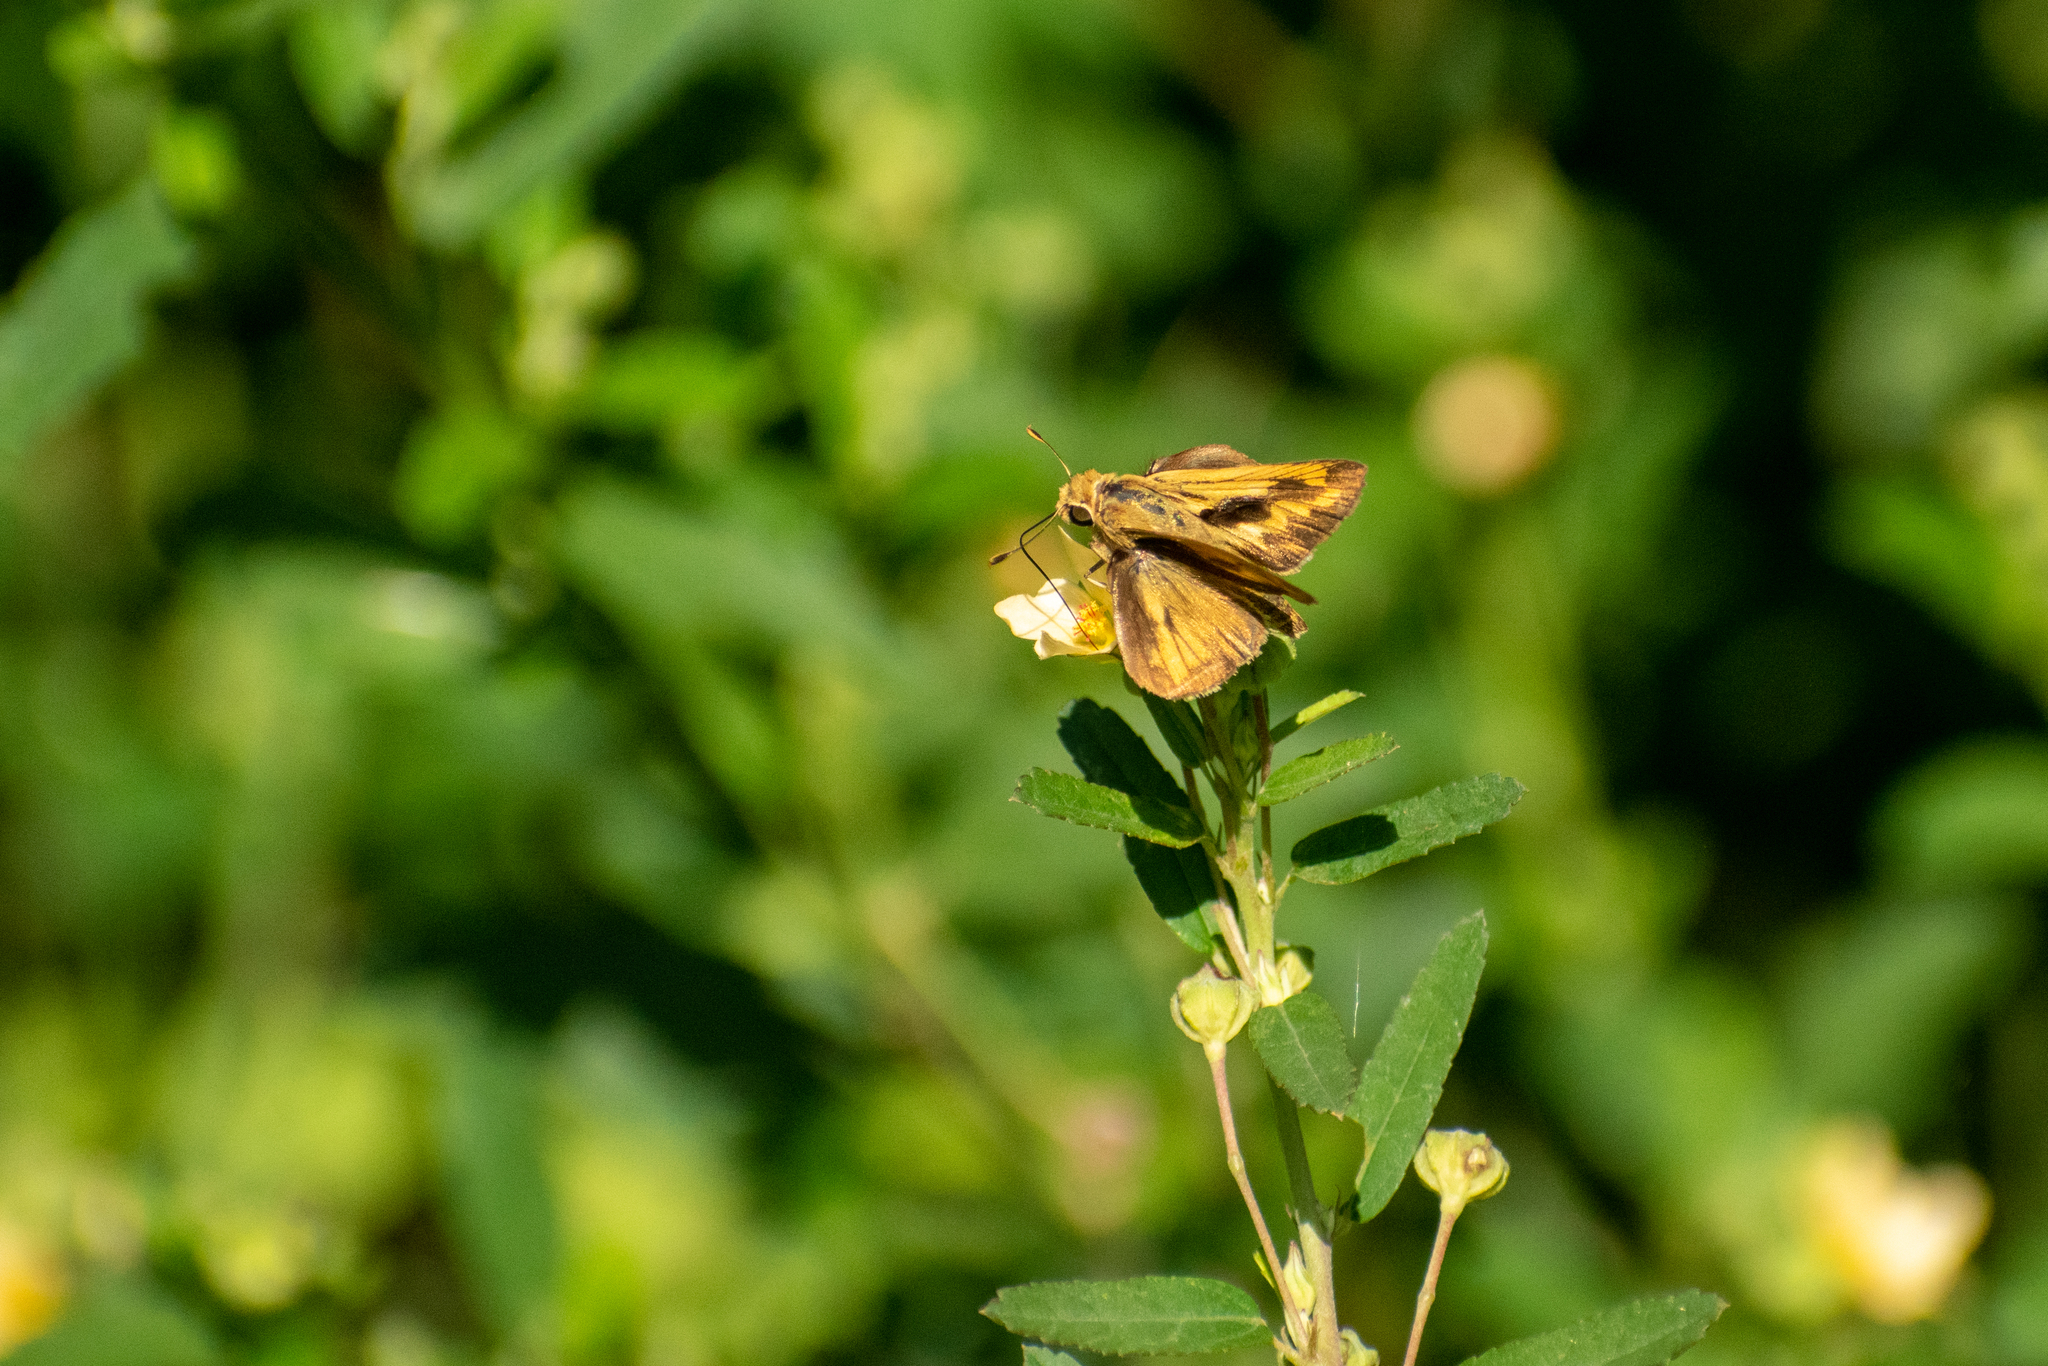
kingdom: Animalia
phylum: Arthropoda
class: Insecta
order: Lepidoptera
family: Hesperiidae
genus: Polites
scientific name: Polites vibex
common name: Whirlabout
